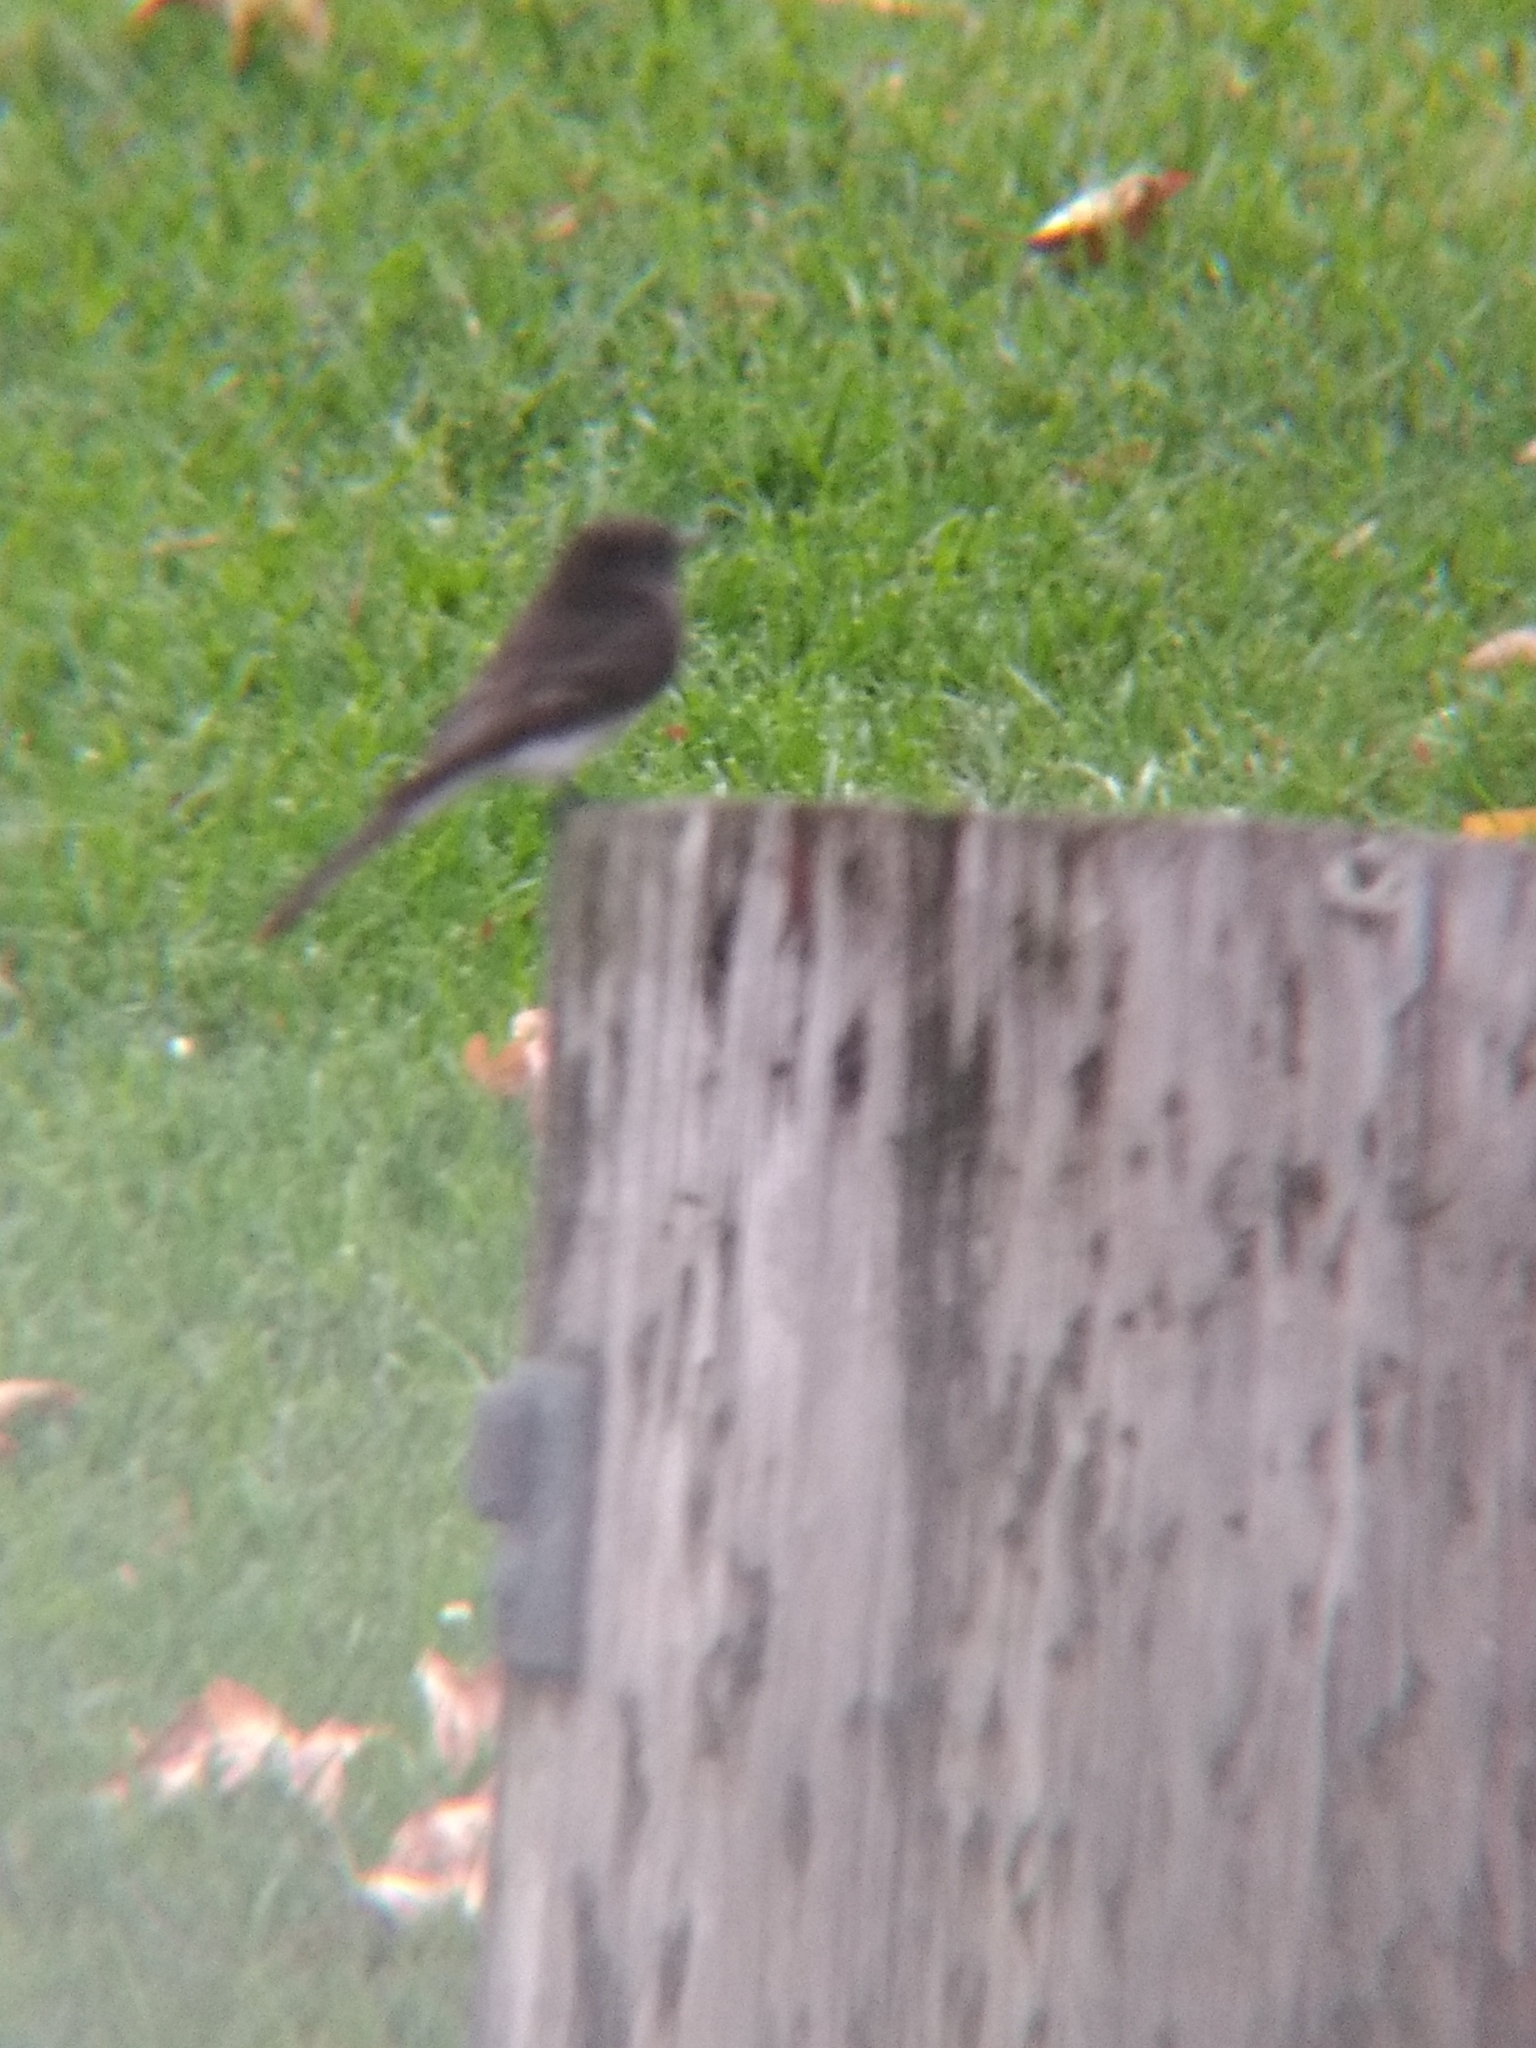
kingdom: Animalia
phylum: Chordata
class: Aves
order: Passeriformes
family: Tyrannidae
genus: Sayornis
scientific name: Sayornis nigricans
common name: Black phoebe
